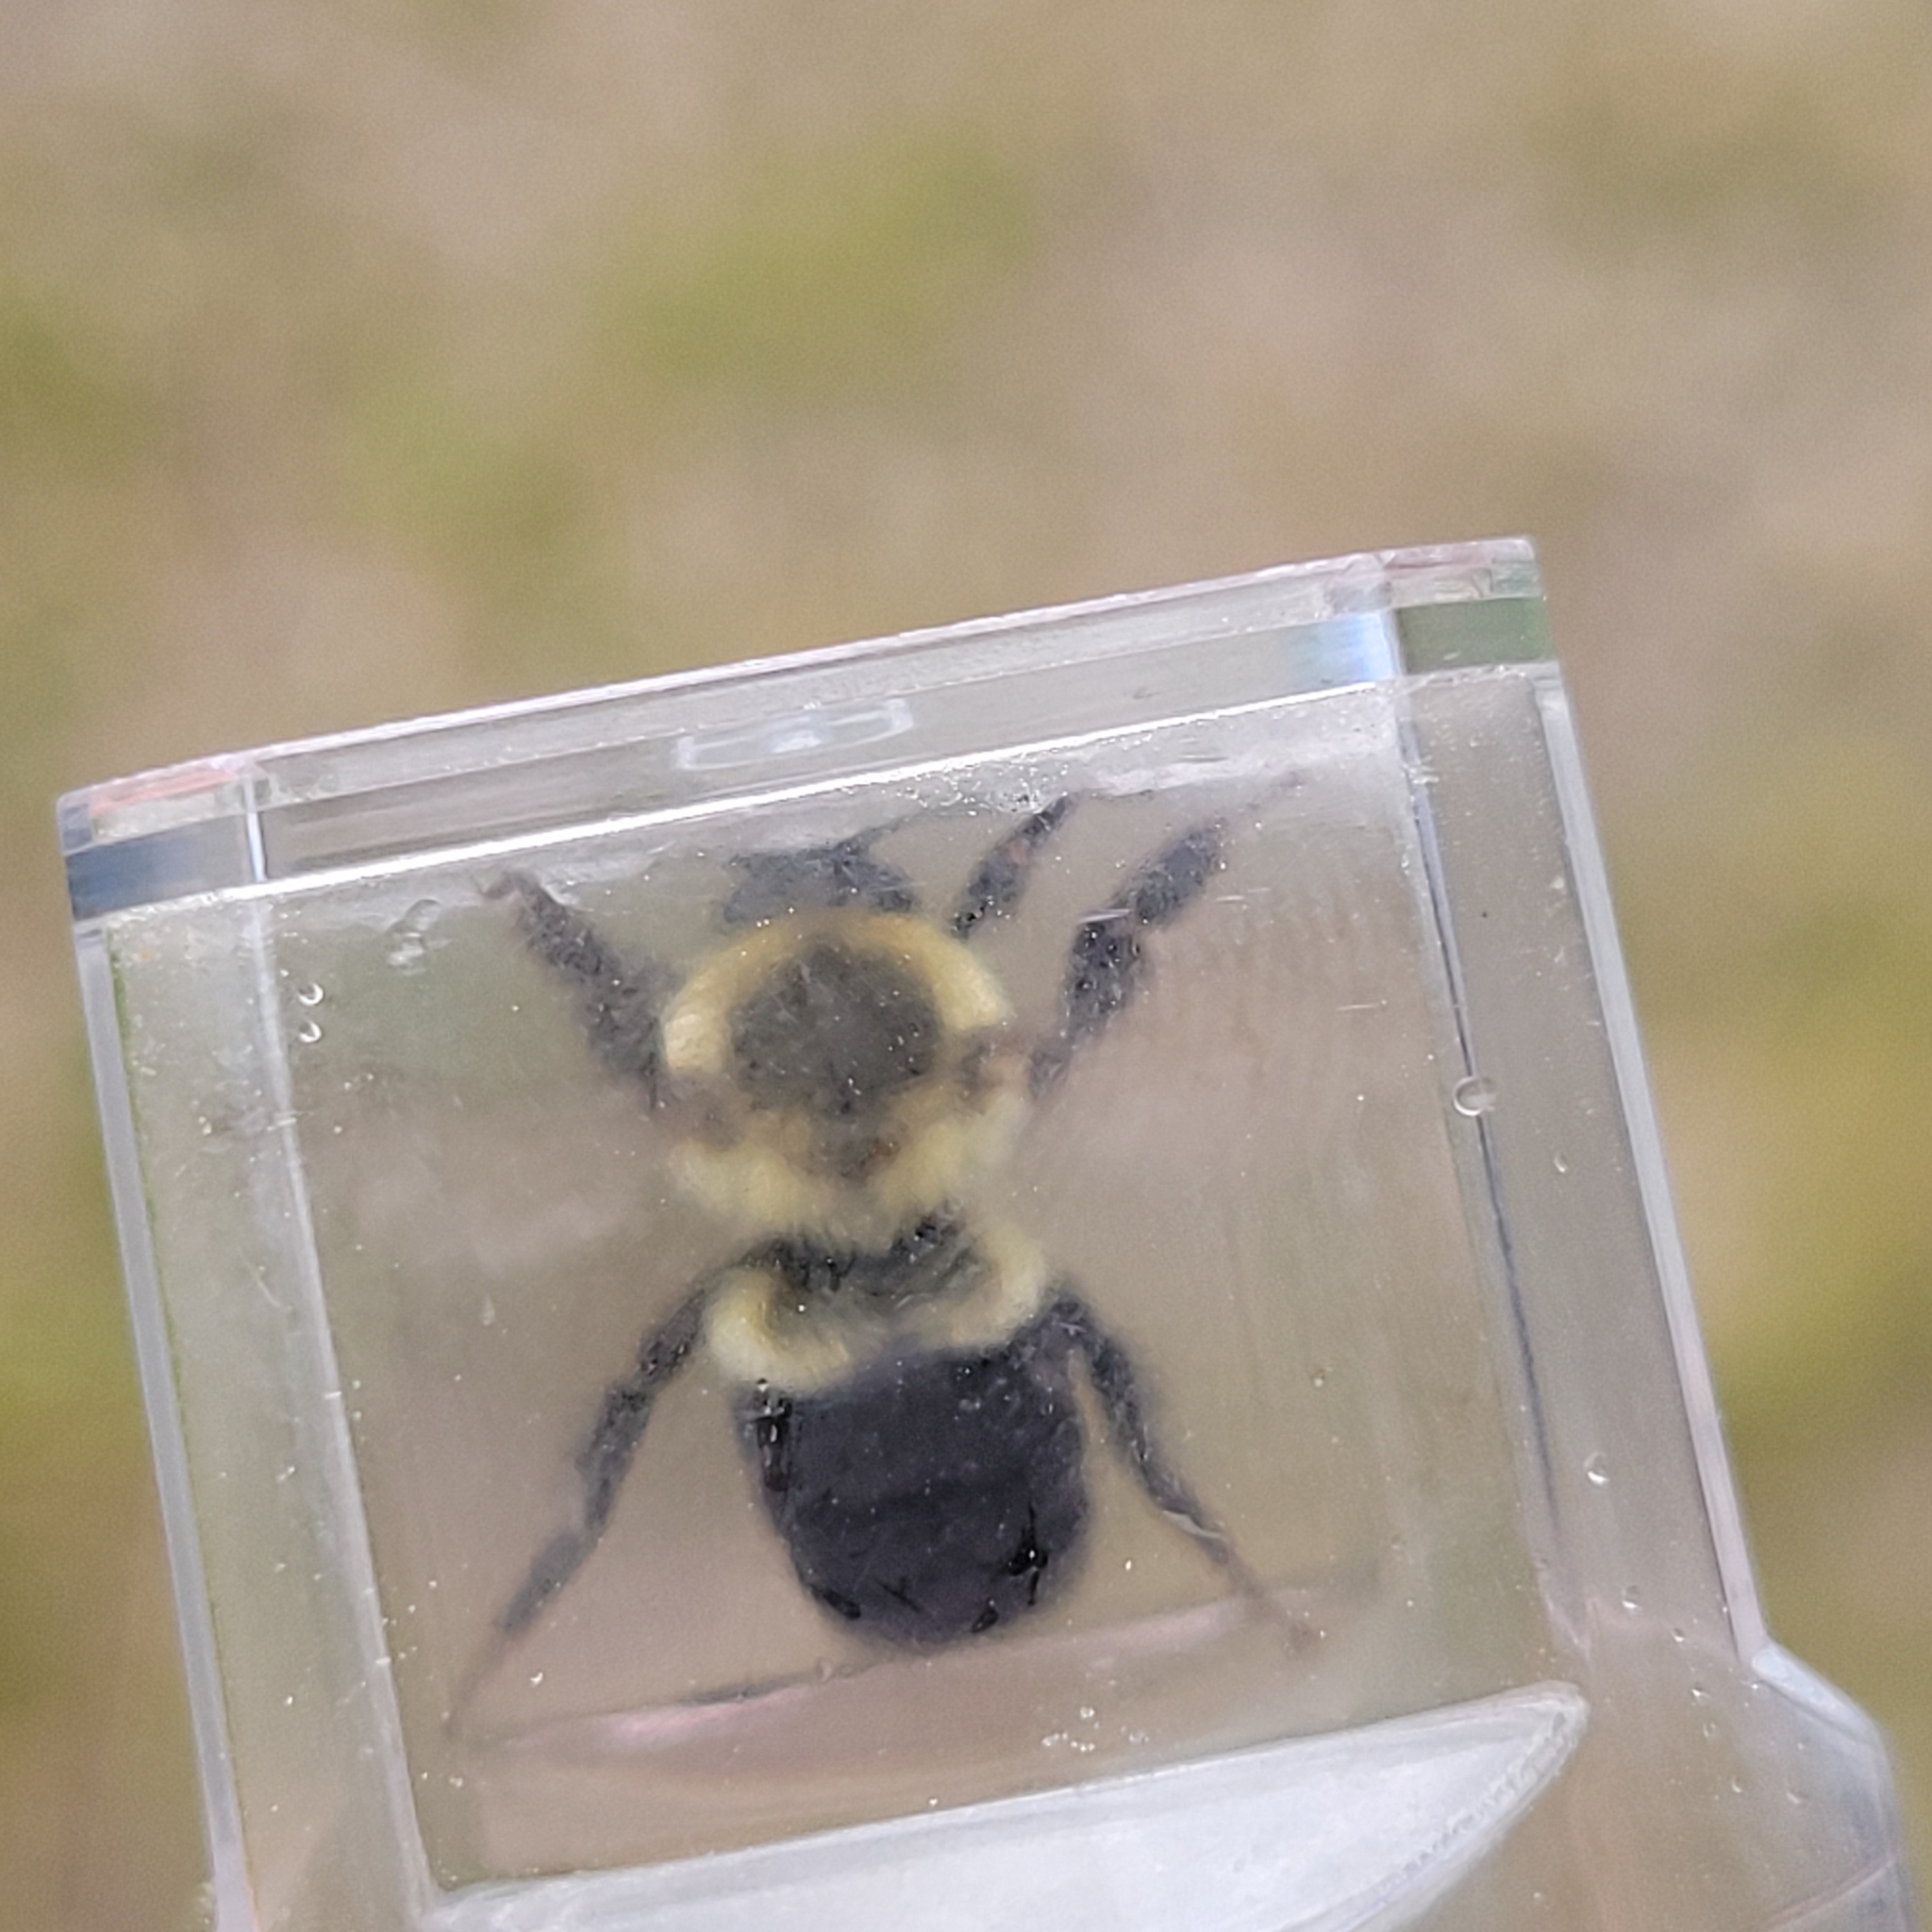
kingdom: Animalia
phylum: Arthropoda
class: Insecta
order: Hymenoptera
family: Apidae
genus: Bombus
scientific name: Bombus impatiens
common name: Common eastern bumble bee
